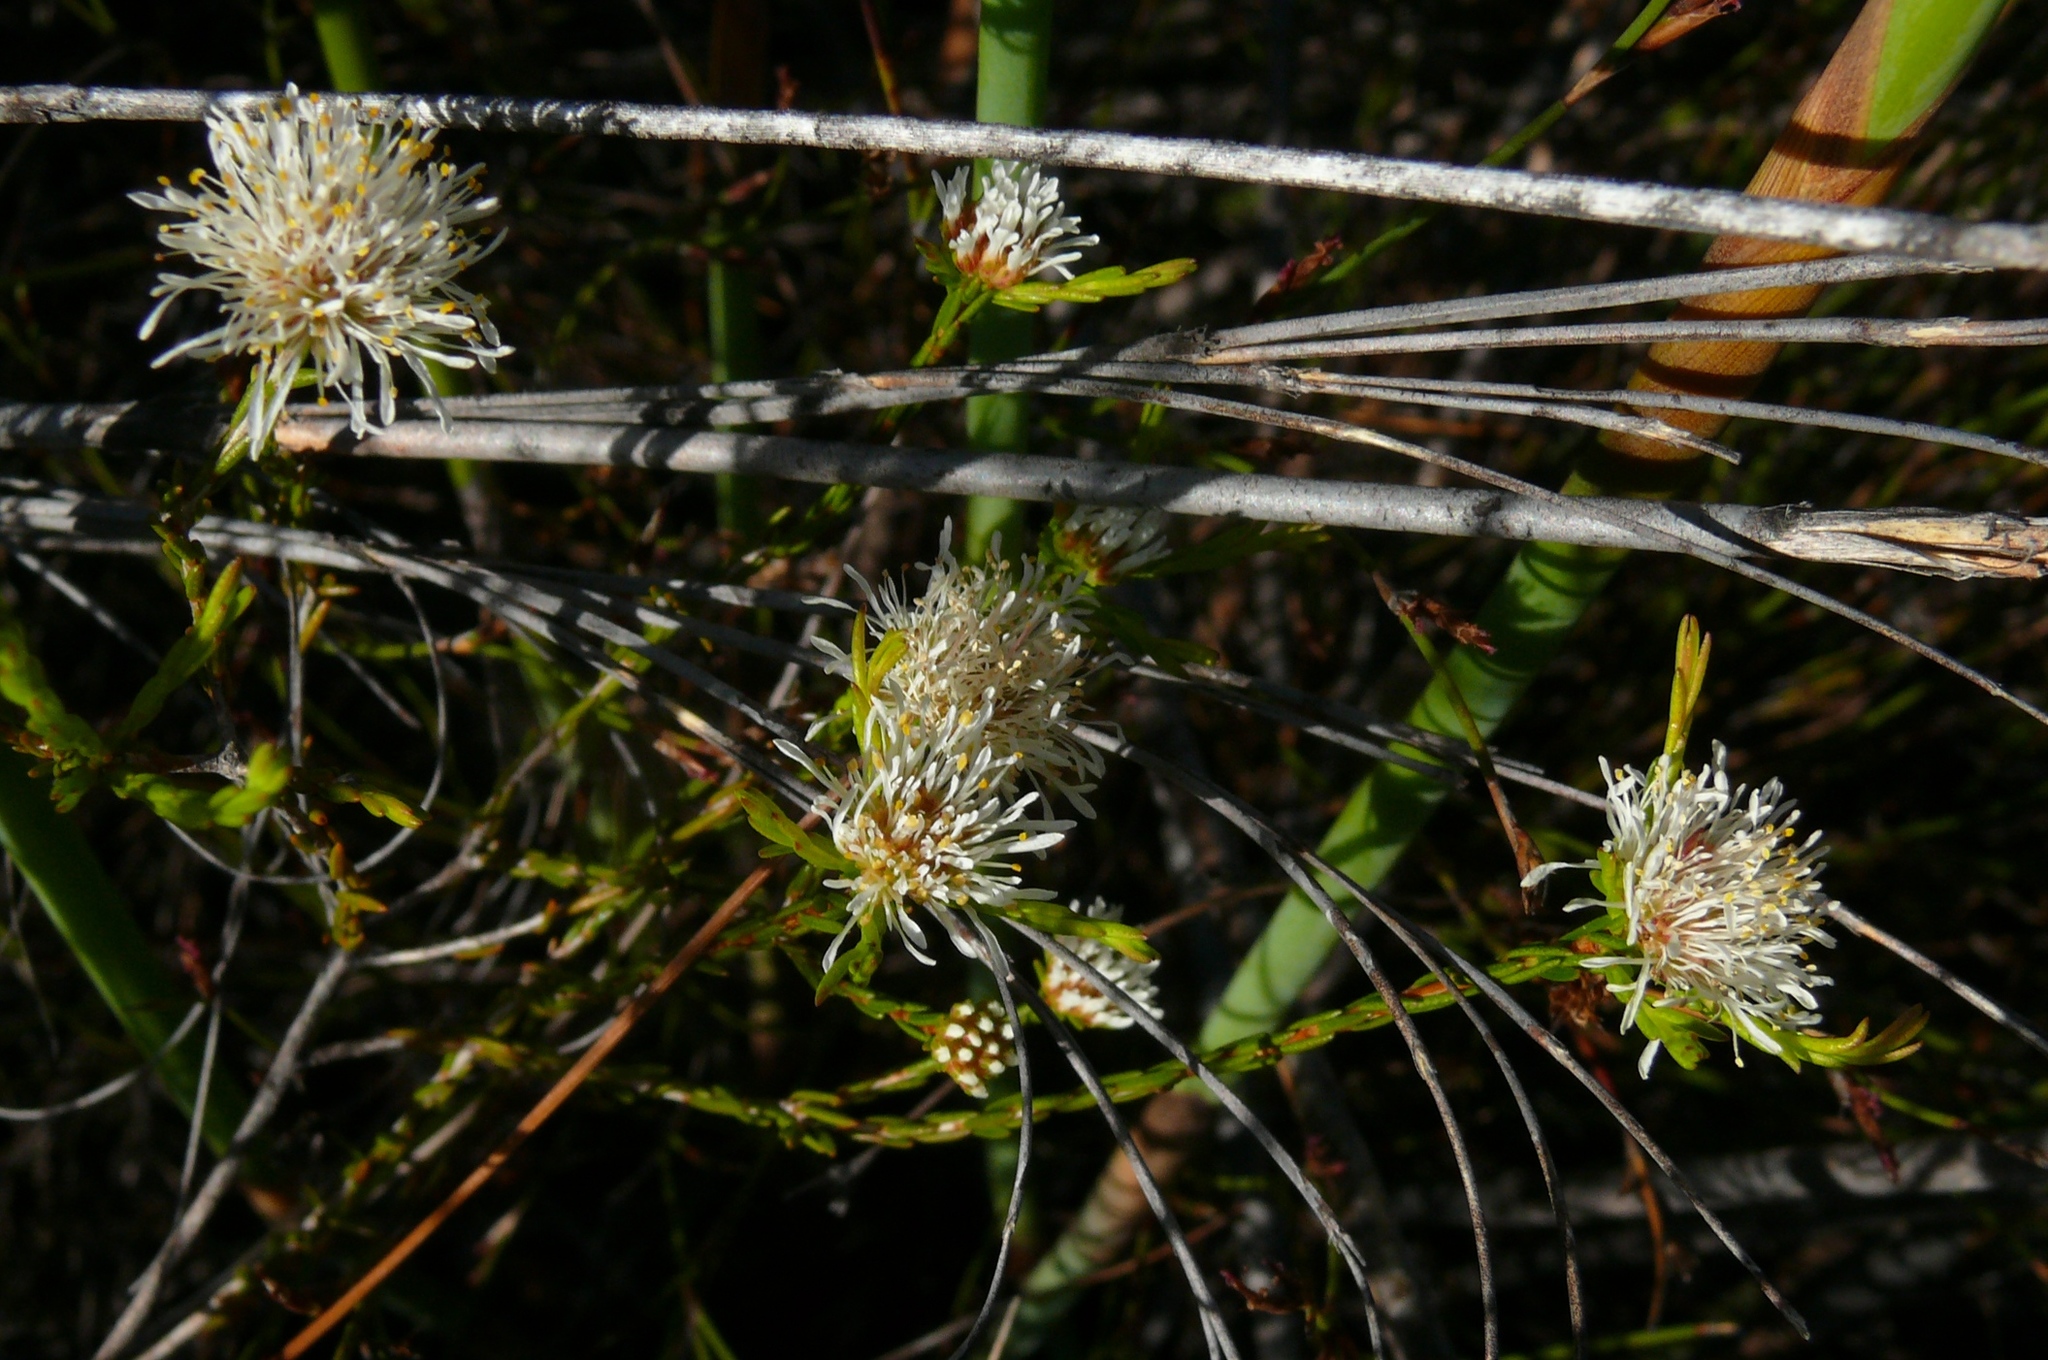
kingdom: Plantae
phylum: Tracheophyta
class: Magnoliopsida
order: Sapindales
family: Rutaceae
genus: Agathosma
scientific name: Agathosma aemula
